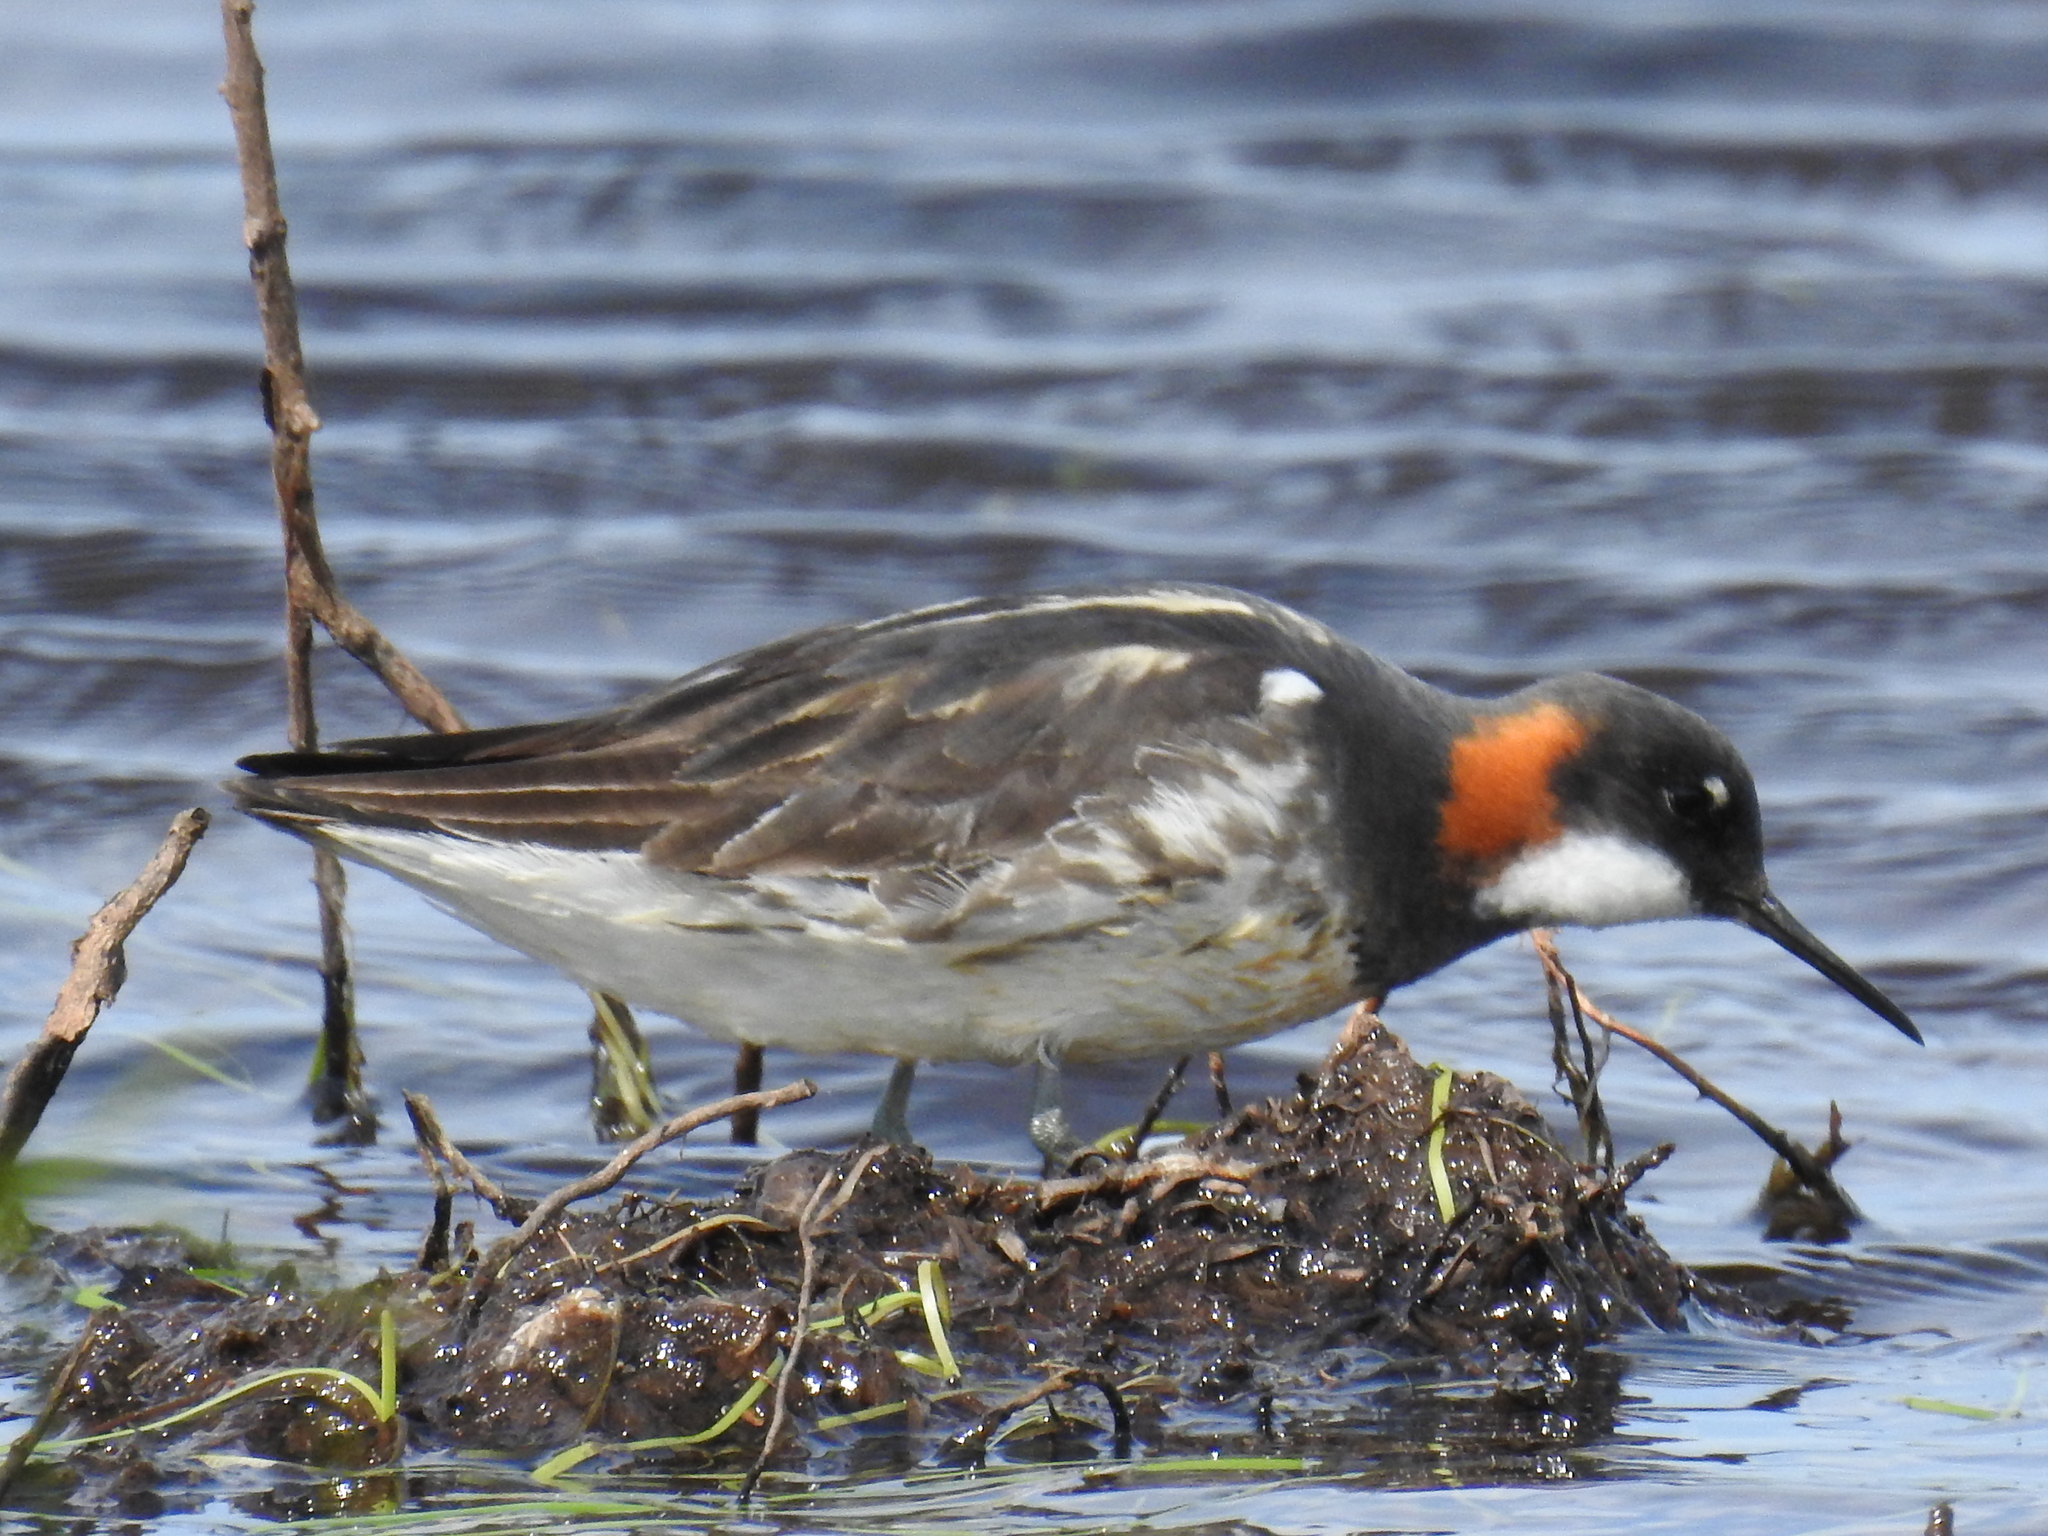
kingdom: Animalia
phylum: Chordata
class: Aves
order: Charadriiformes
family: Scolopacidae
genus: Phalaropus
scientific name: Phalaropus lobatus
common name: Red-necked phalarope
